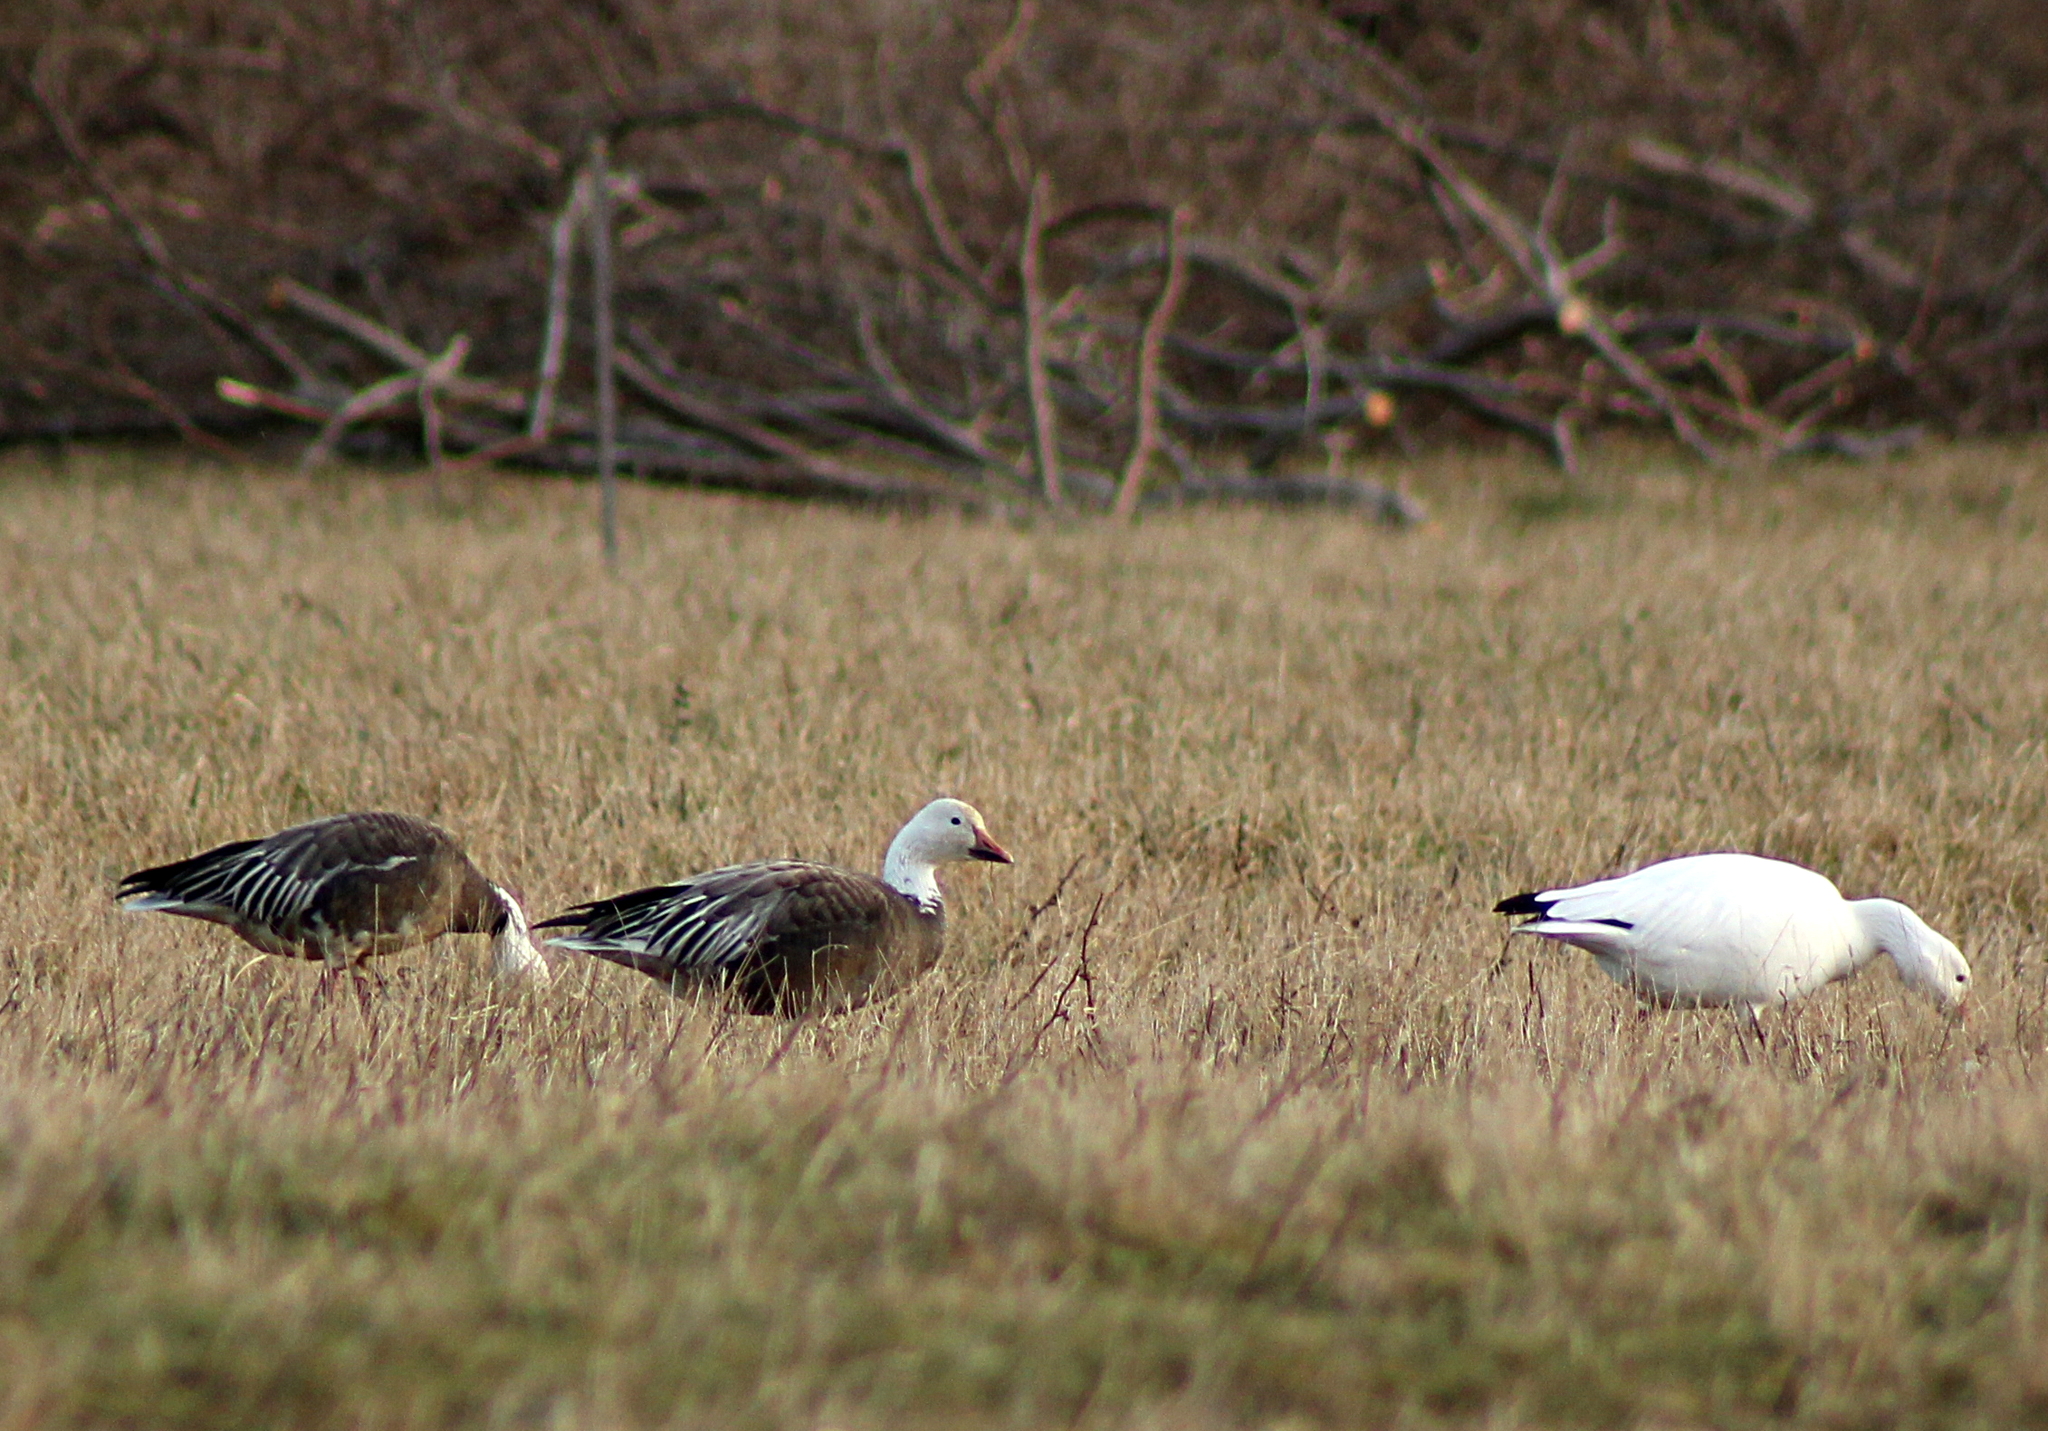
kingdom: Animalia
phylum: Chordata
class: Aves
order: Anseriformes
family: Anatidae
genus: Anser
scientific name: Anser caerulescens
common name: Snow goose
